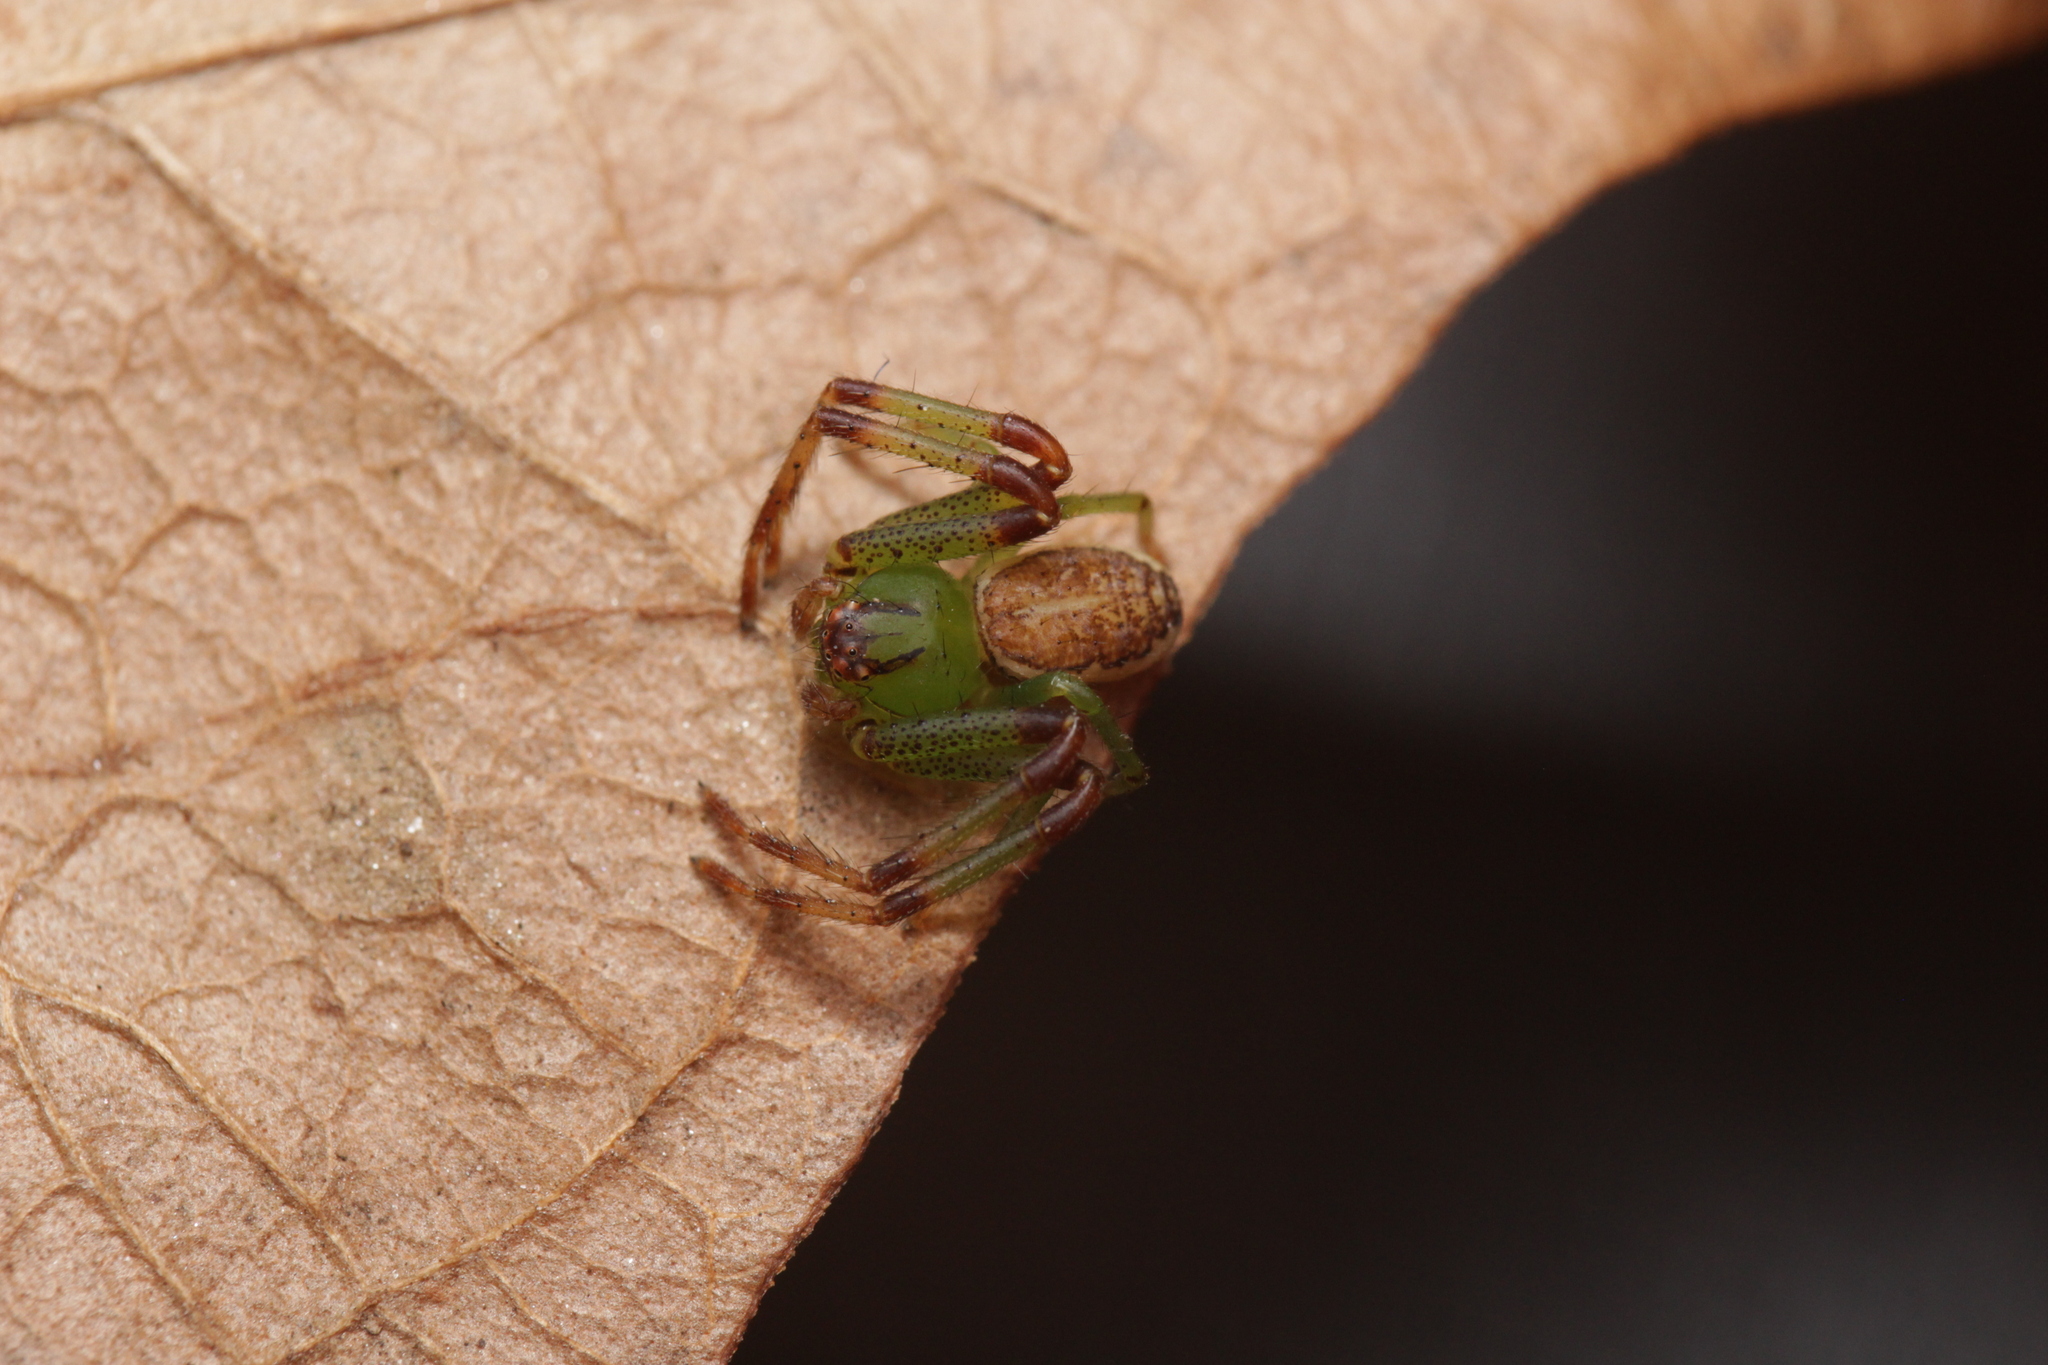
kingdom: Animalia
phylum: Arthropoda
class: Arachnida
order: Araneae
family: Thomisidae
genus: Diaea
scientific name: Diaea dorsata
